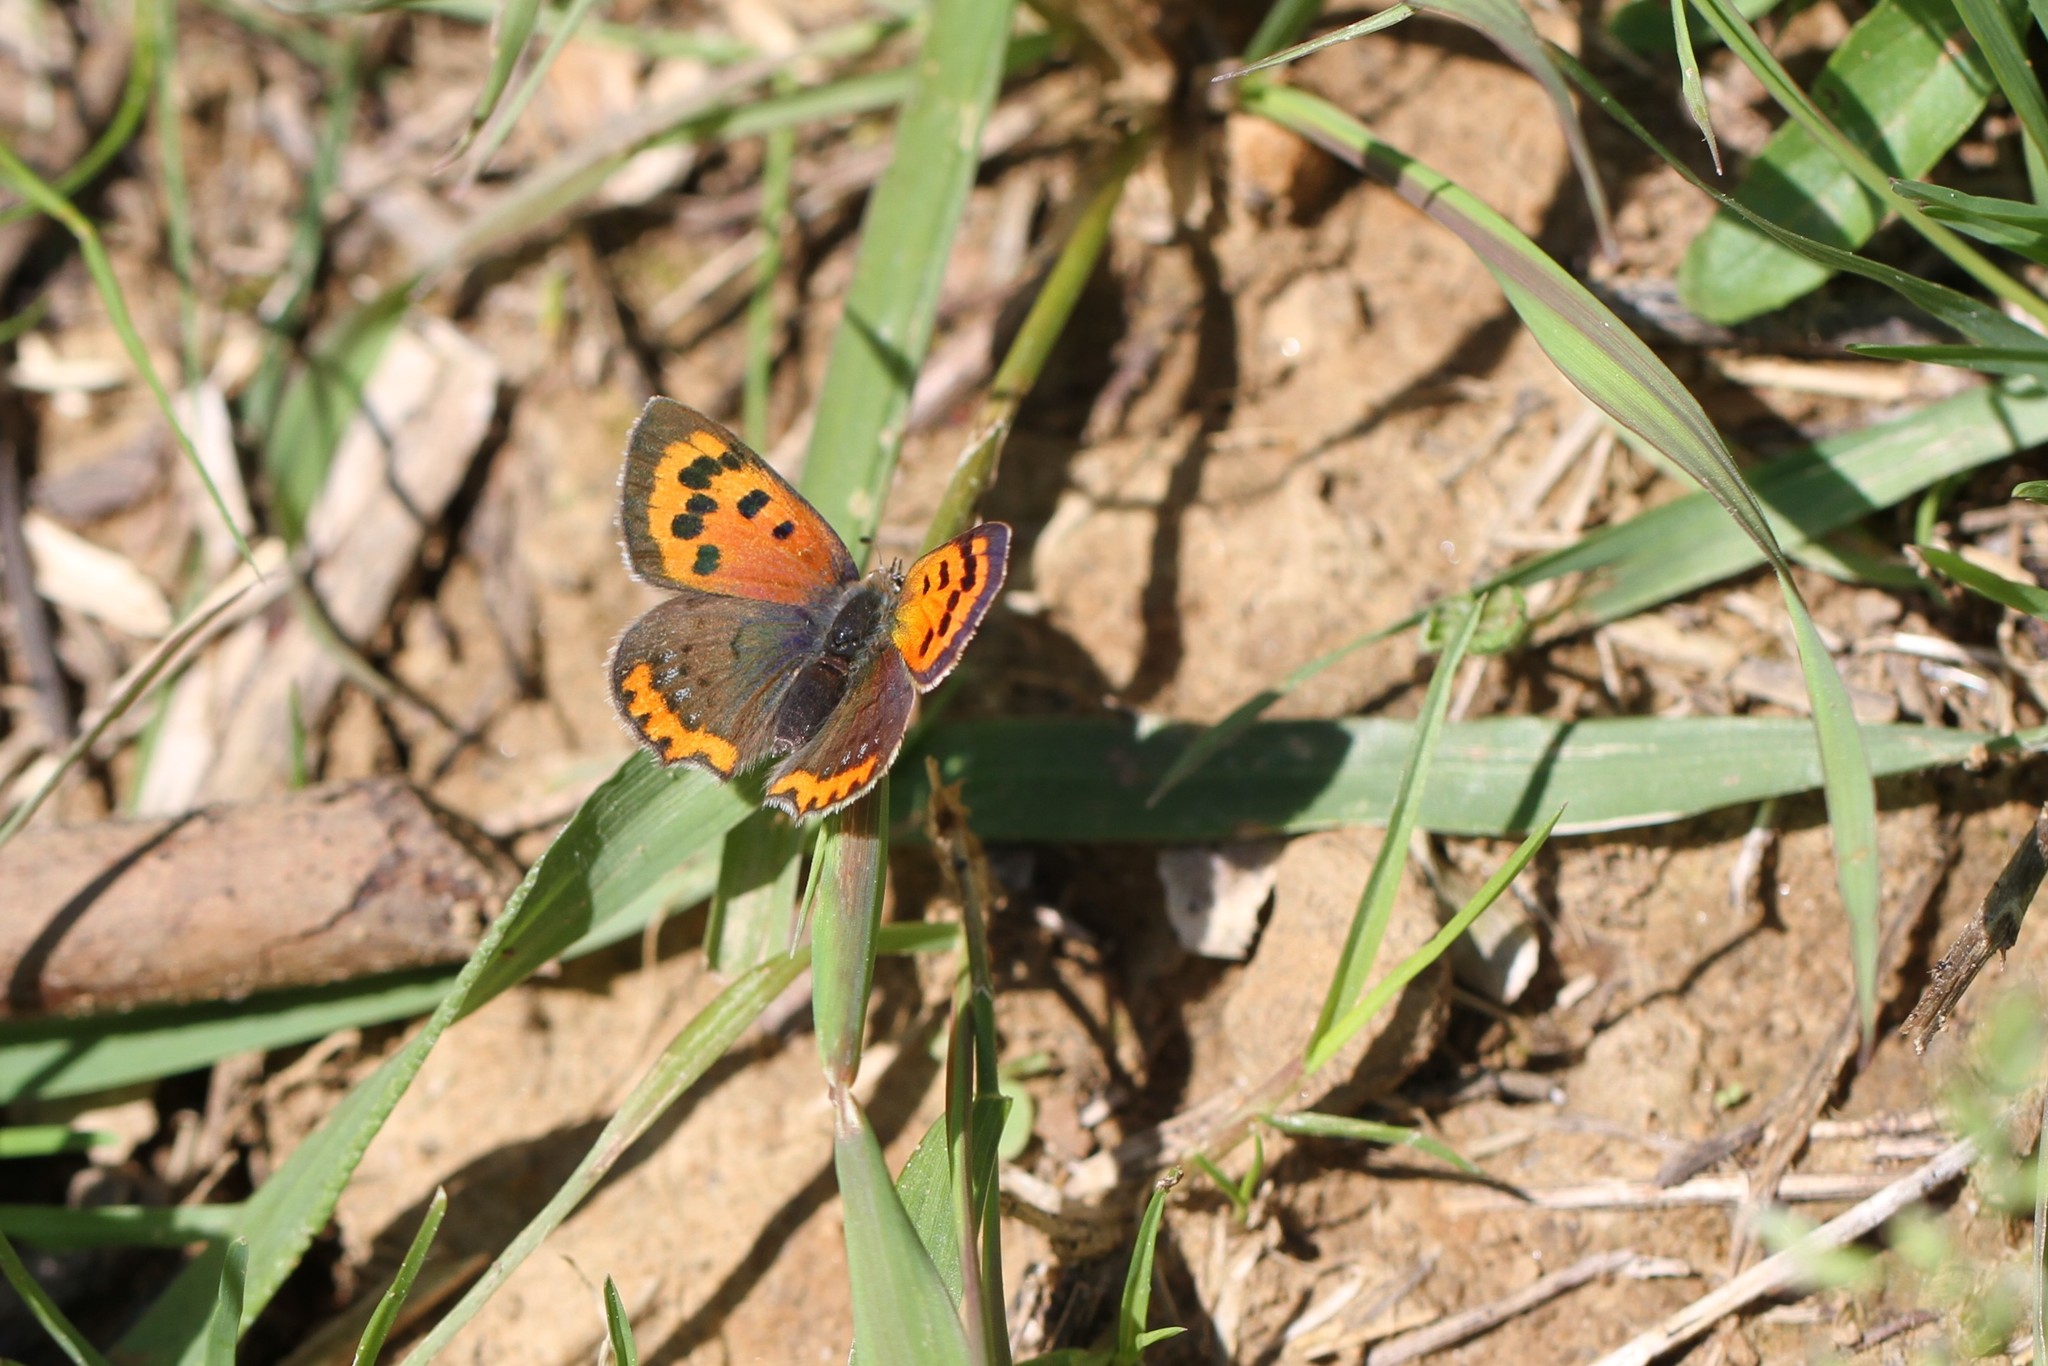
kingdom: Animalia
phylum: Arthropoda
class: Insecta
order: Lepidoptera
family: Lycaenidae
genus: Lycaena
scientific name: Lycaena phlaeas
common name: Small copper
